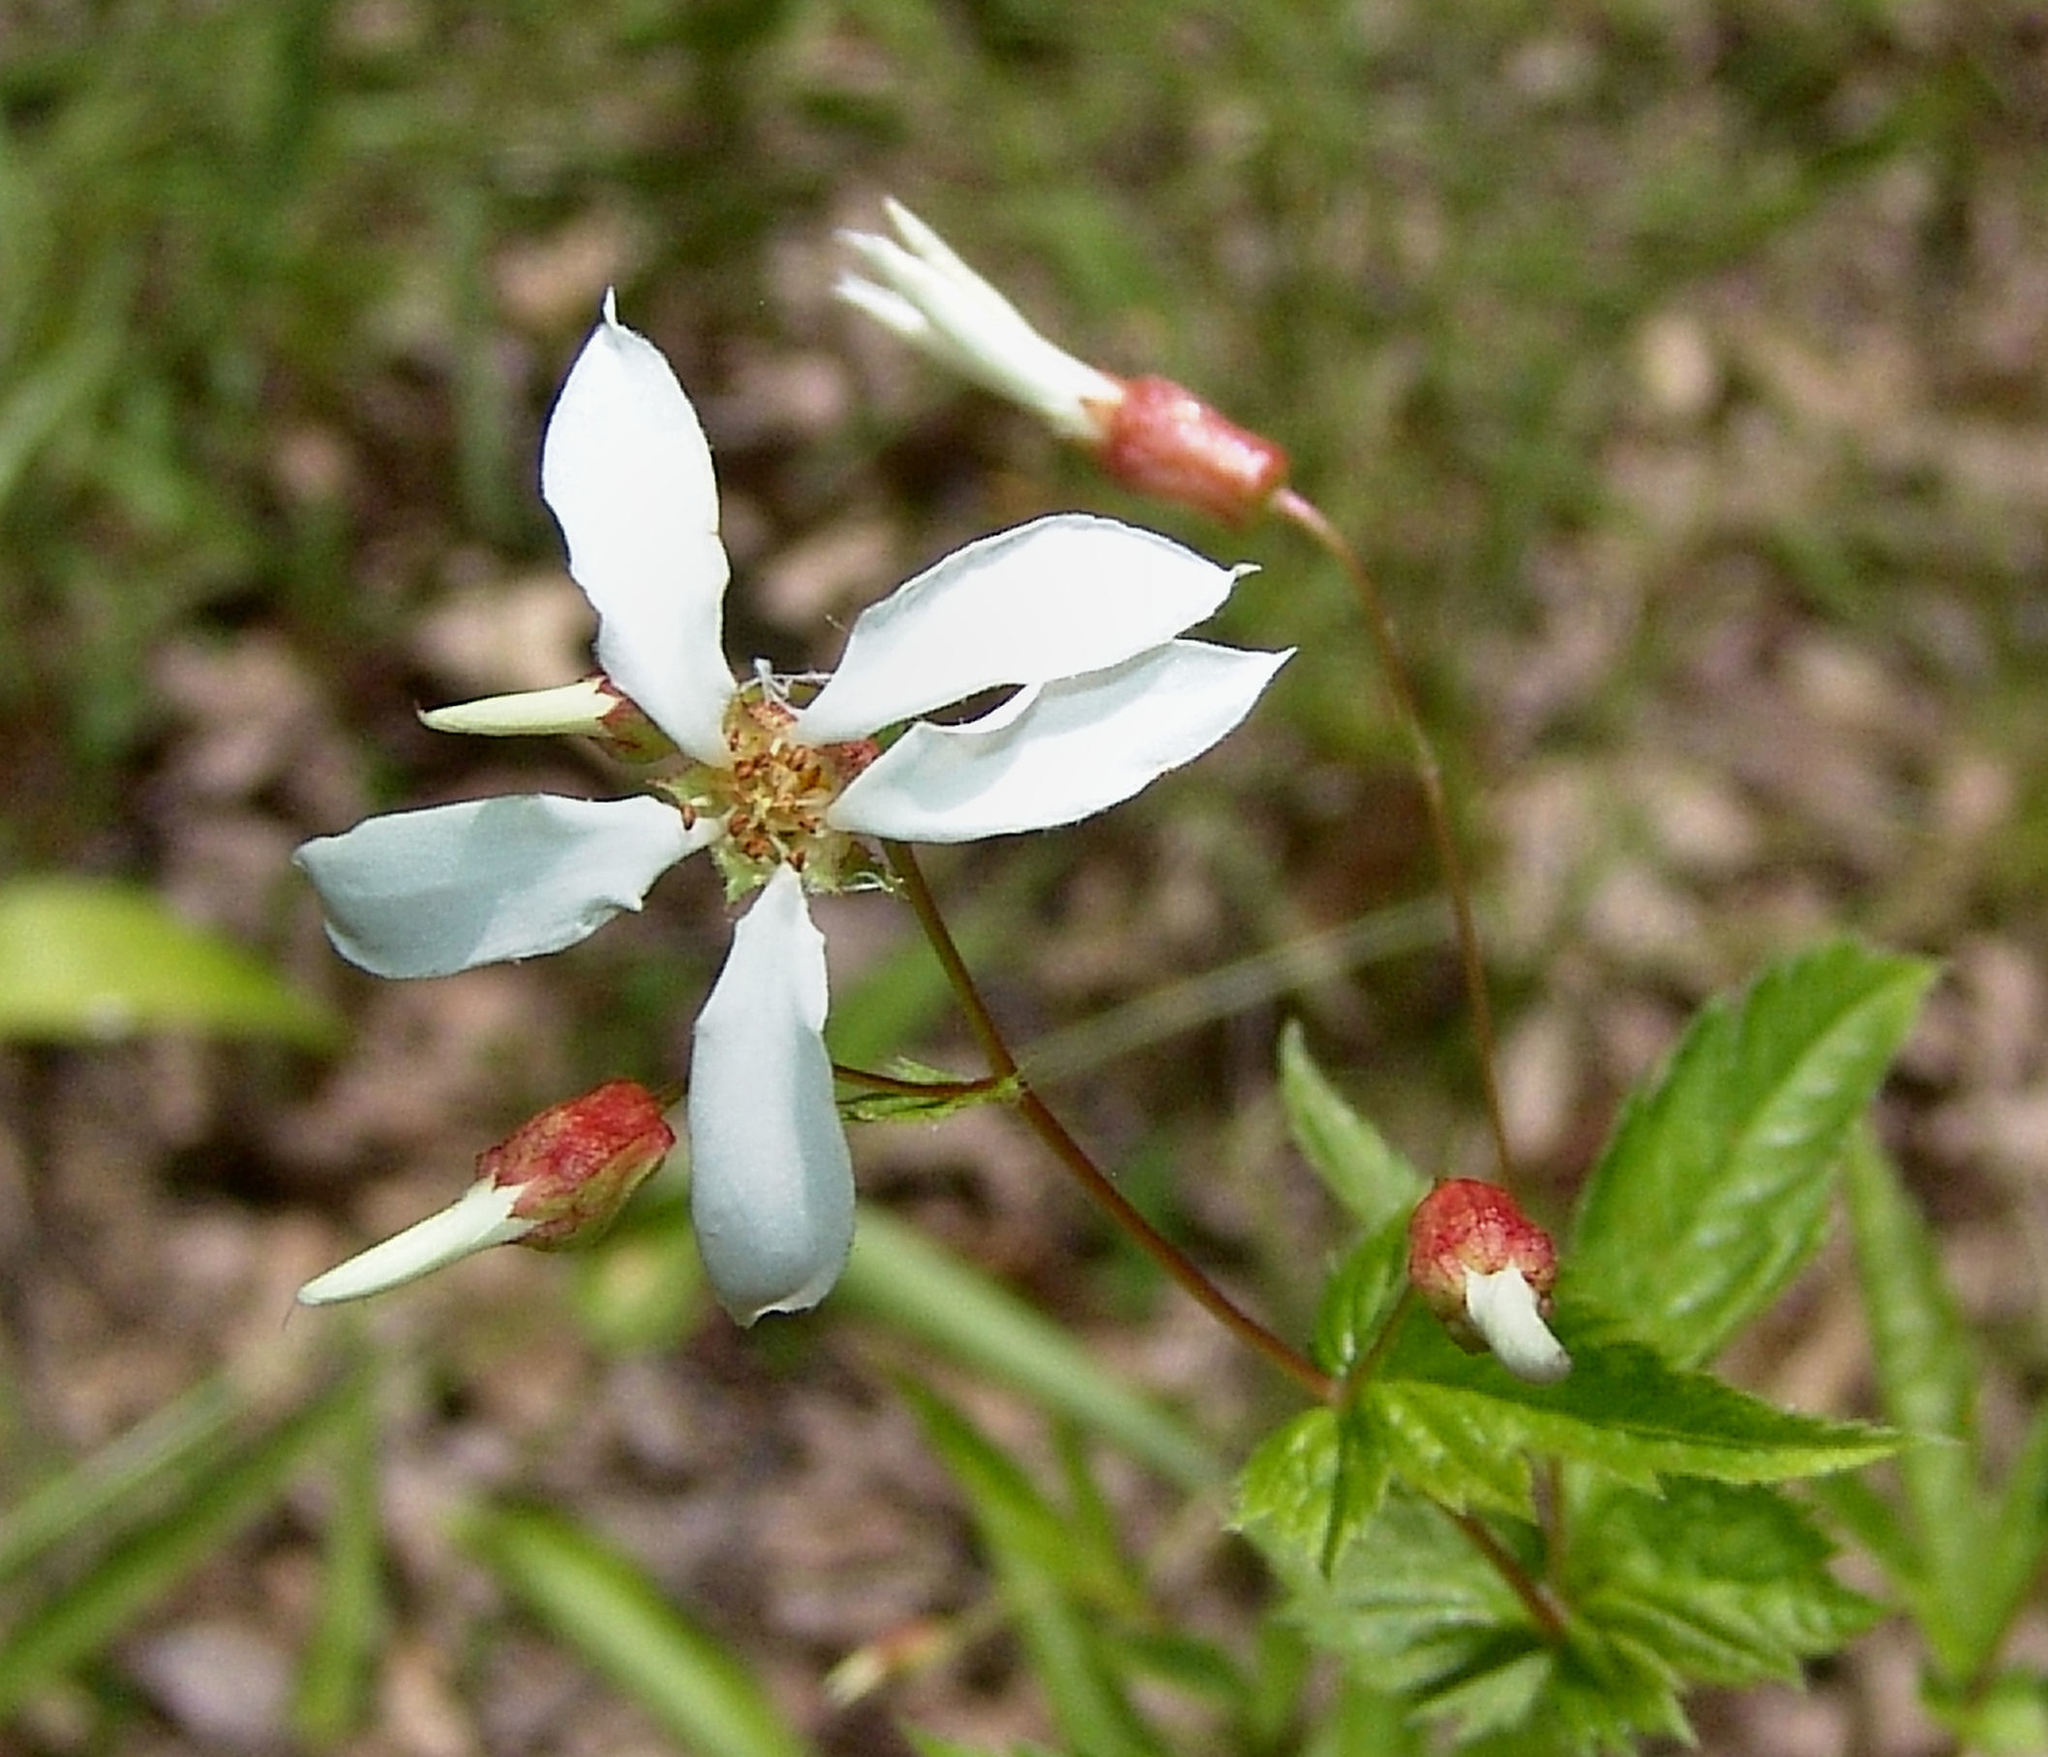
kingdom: Plantae
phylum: Tracheophyta
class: Magnoliopsida
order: Rosales
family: Rosaceae
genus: Gillenia
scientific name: Gillenia stipulata
